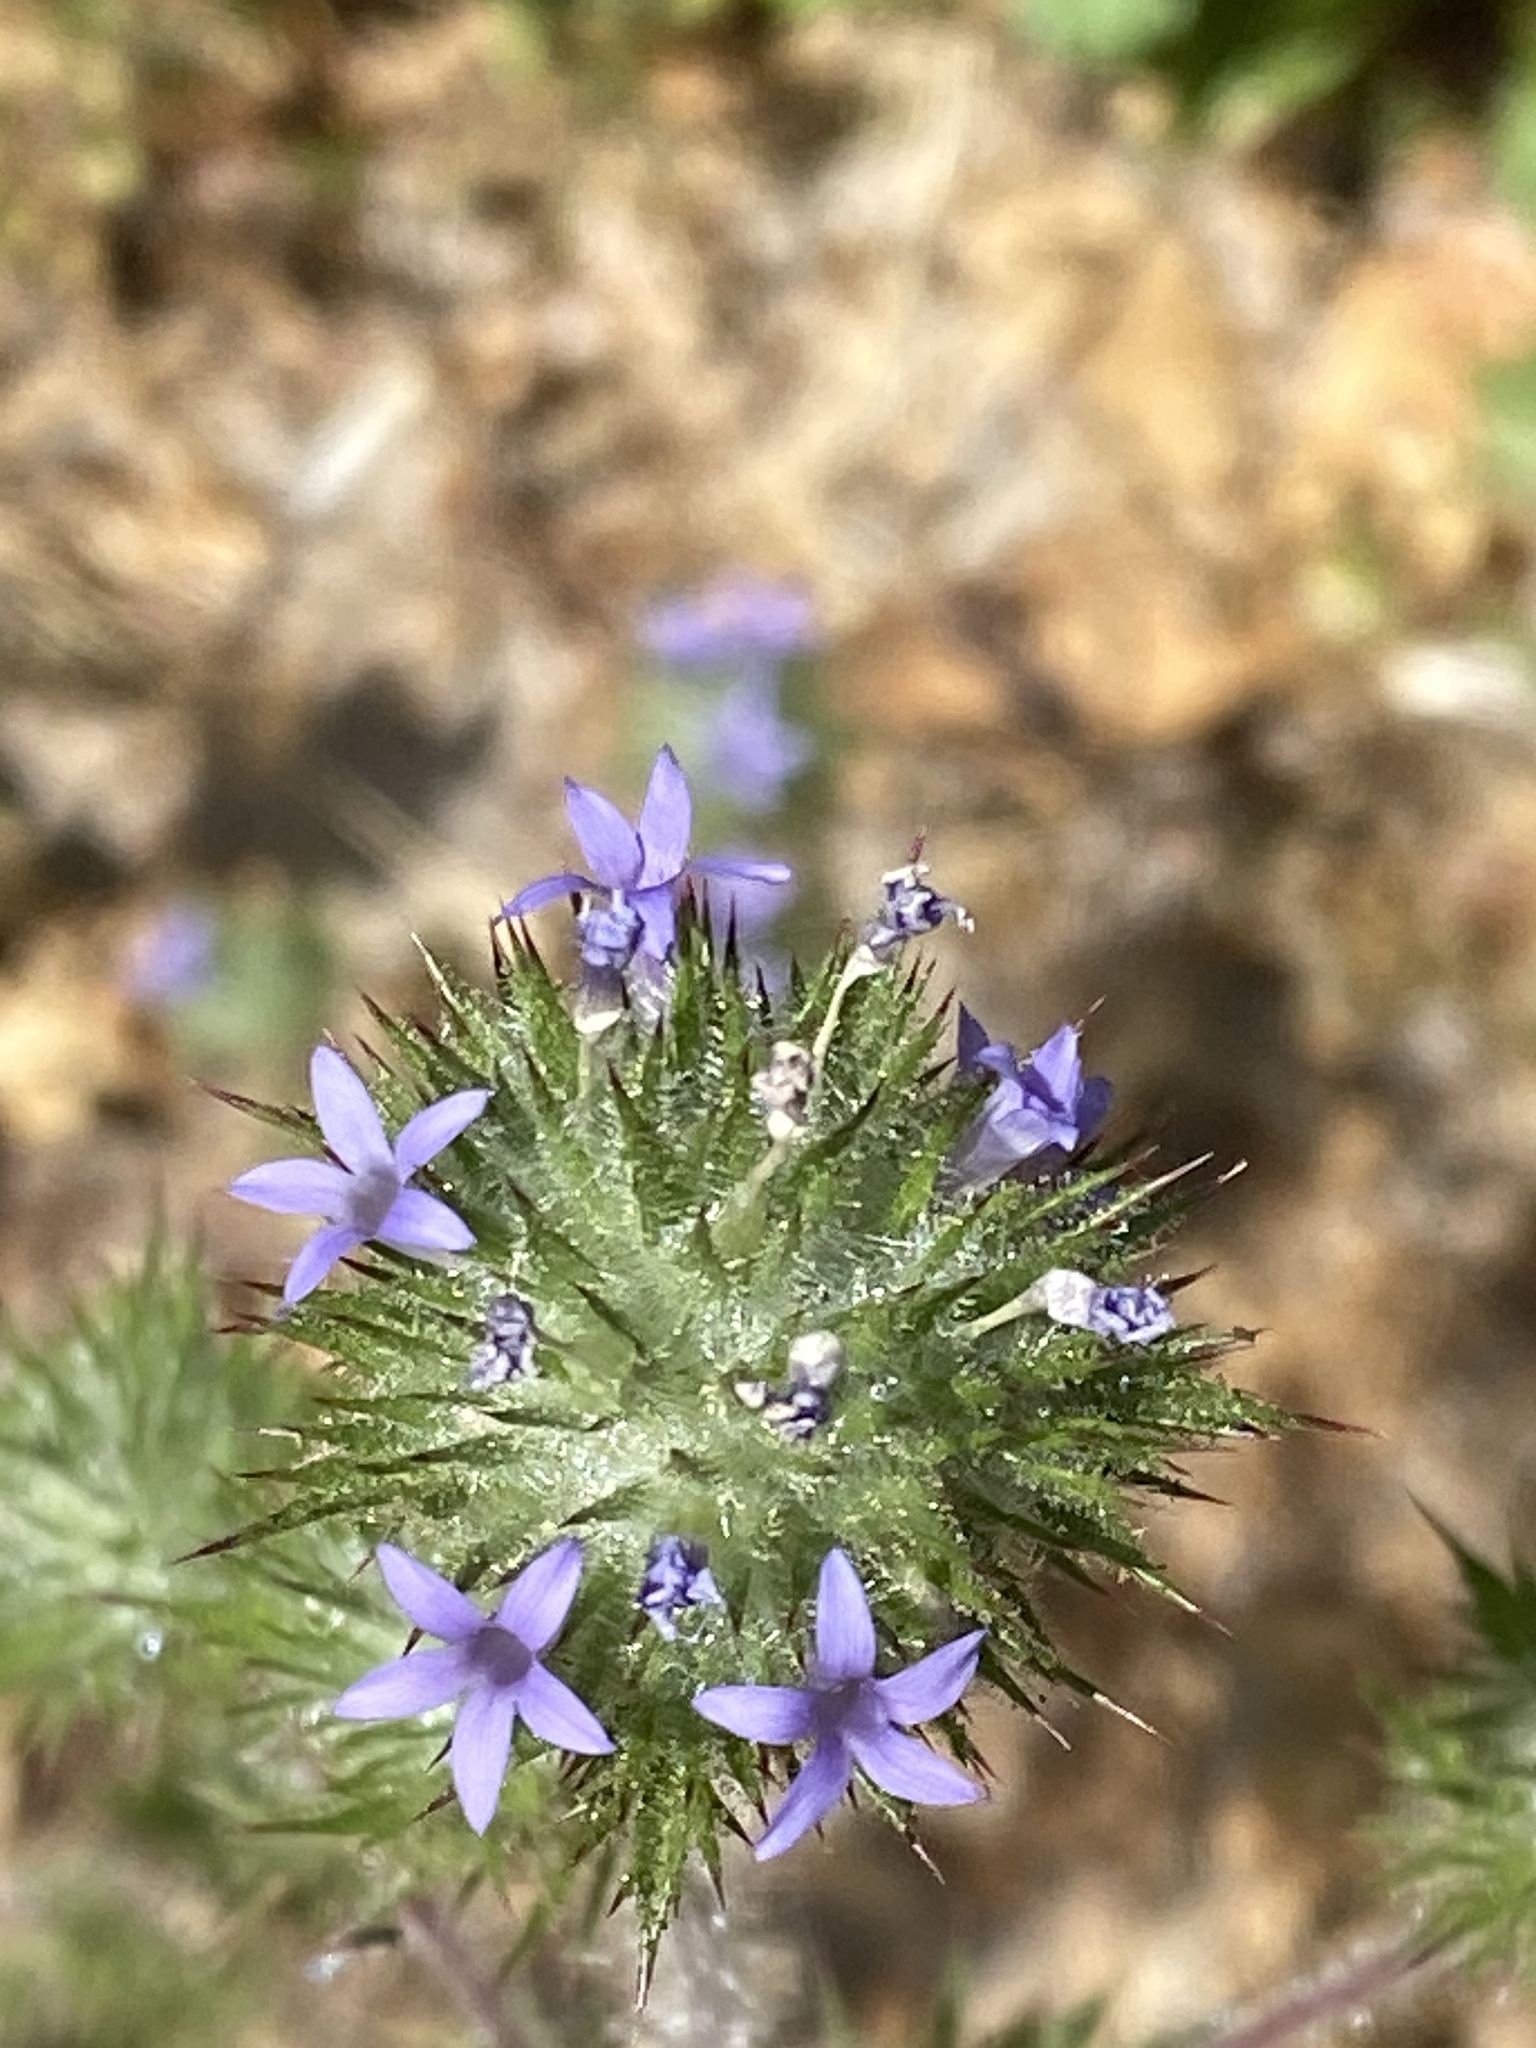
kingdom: Plantae
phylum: Tracheophyta
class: Magnoliopsida
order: Ericales
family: Polemoniaceae
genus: Navarretia
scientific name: Navarretia squarrosa
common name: Skunkweed
